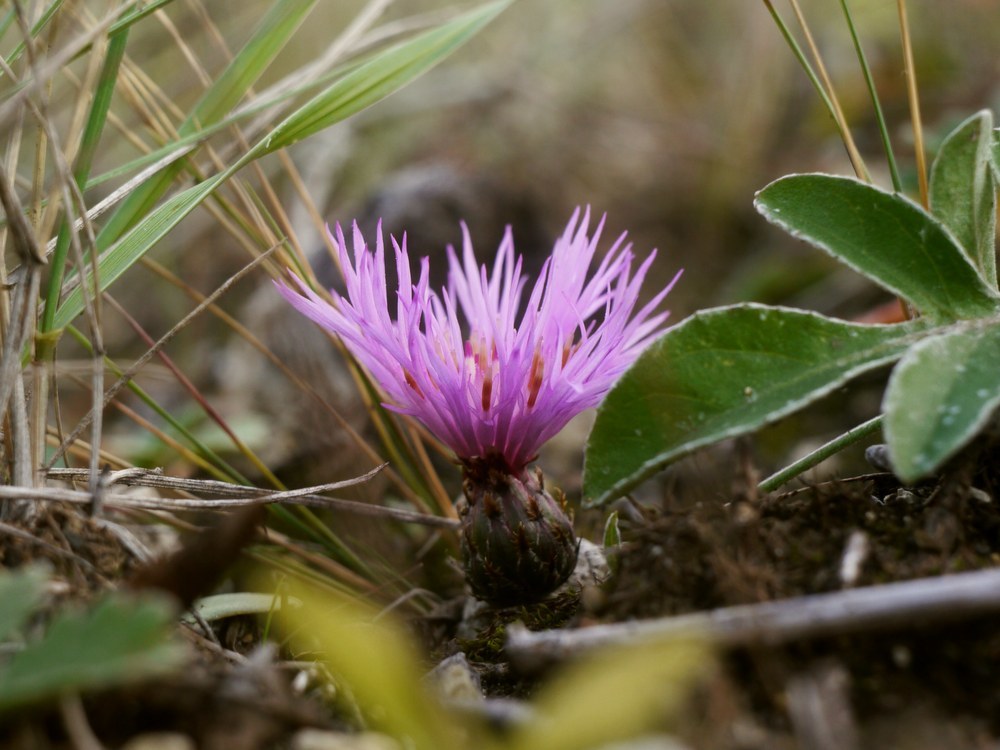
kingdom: Plantae
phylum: Tracheophyta
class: Magnoliopsida
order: Asterales
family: Asteraceae
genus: Psephellus
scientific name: Psephellus marschallianus
